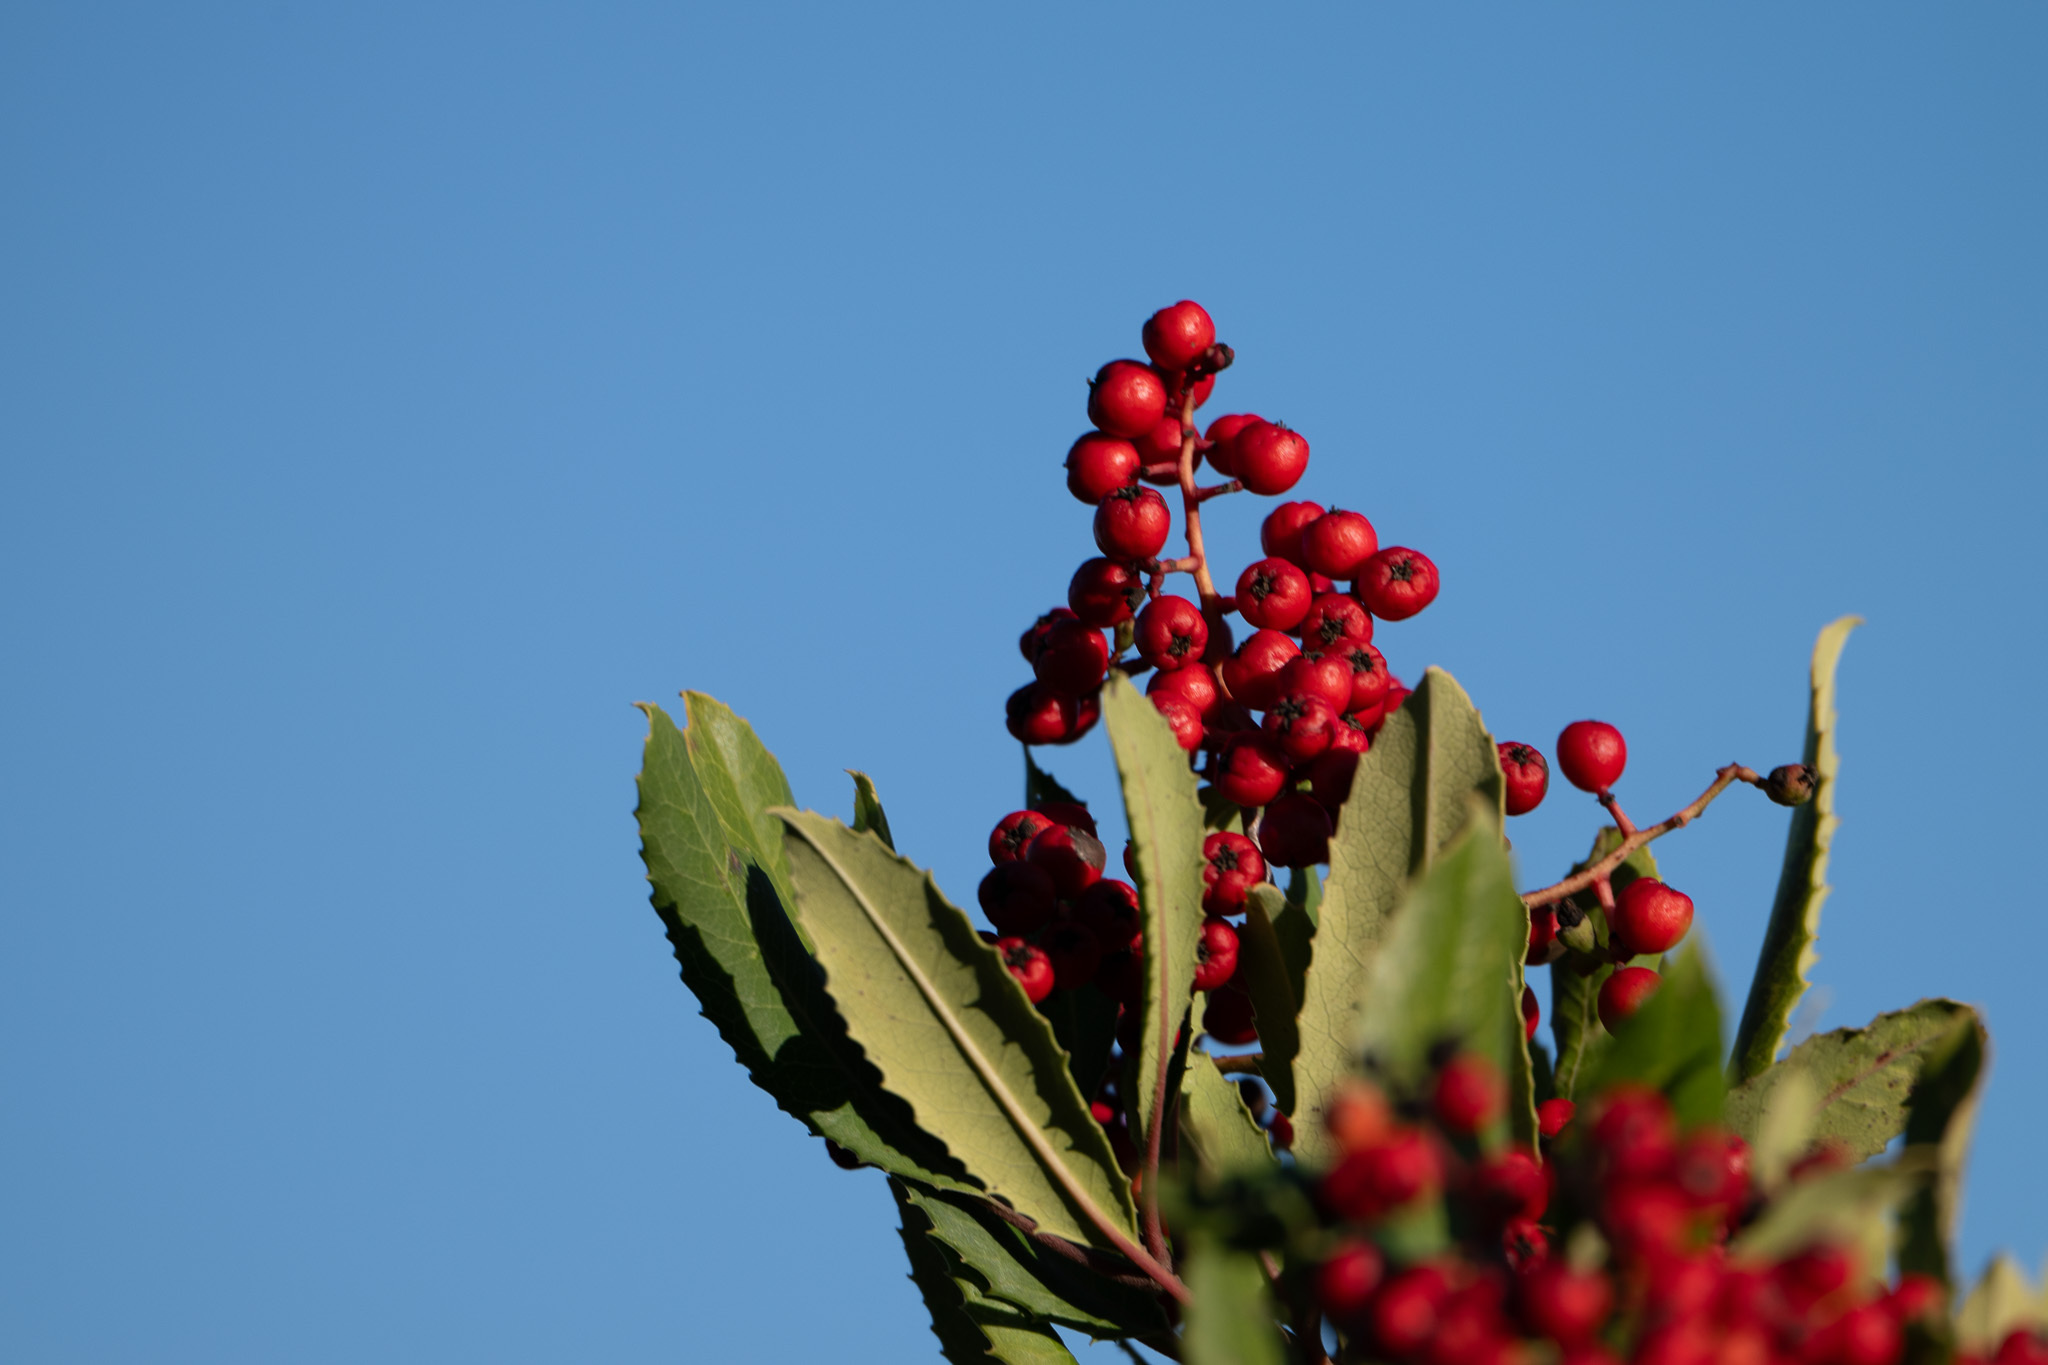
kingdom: Plantae
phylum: Tracheophyta
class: Magnoliopsida
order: Rosales
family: Rosaceae
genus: Heteromeles
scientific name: Heteromeles arbutifolia
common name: California-holly
